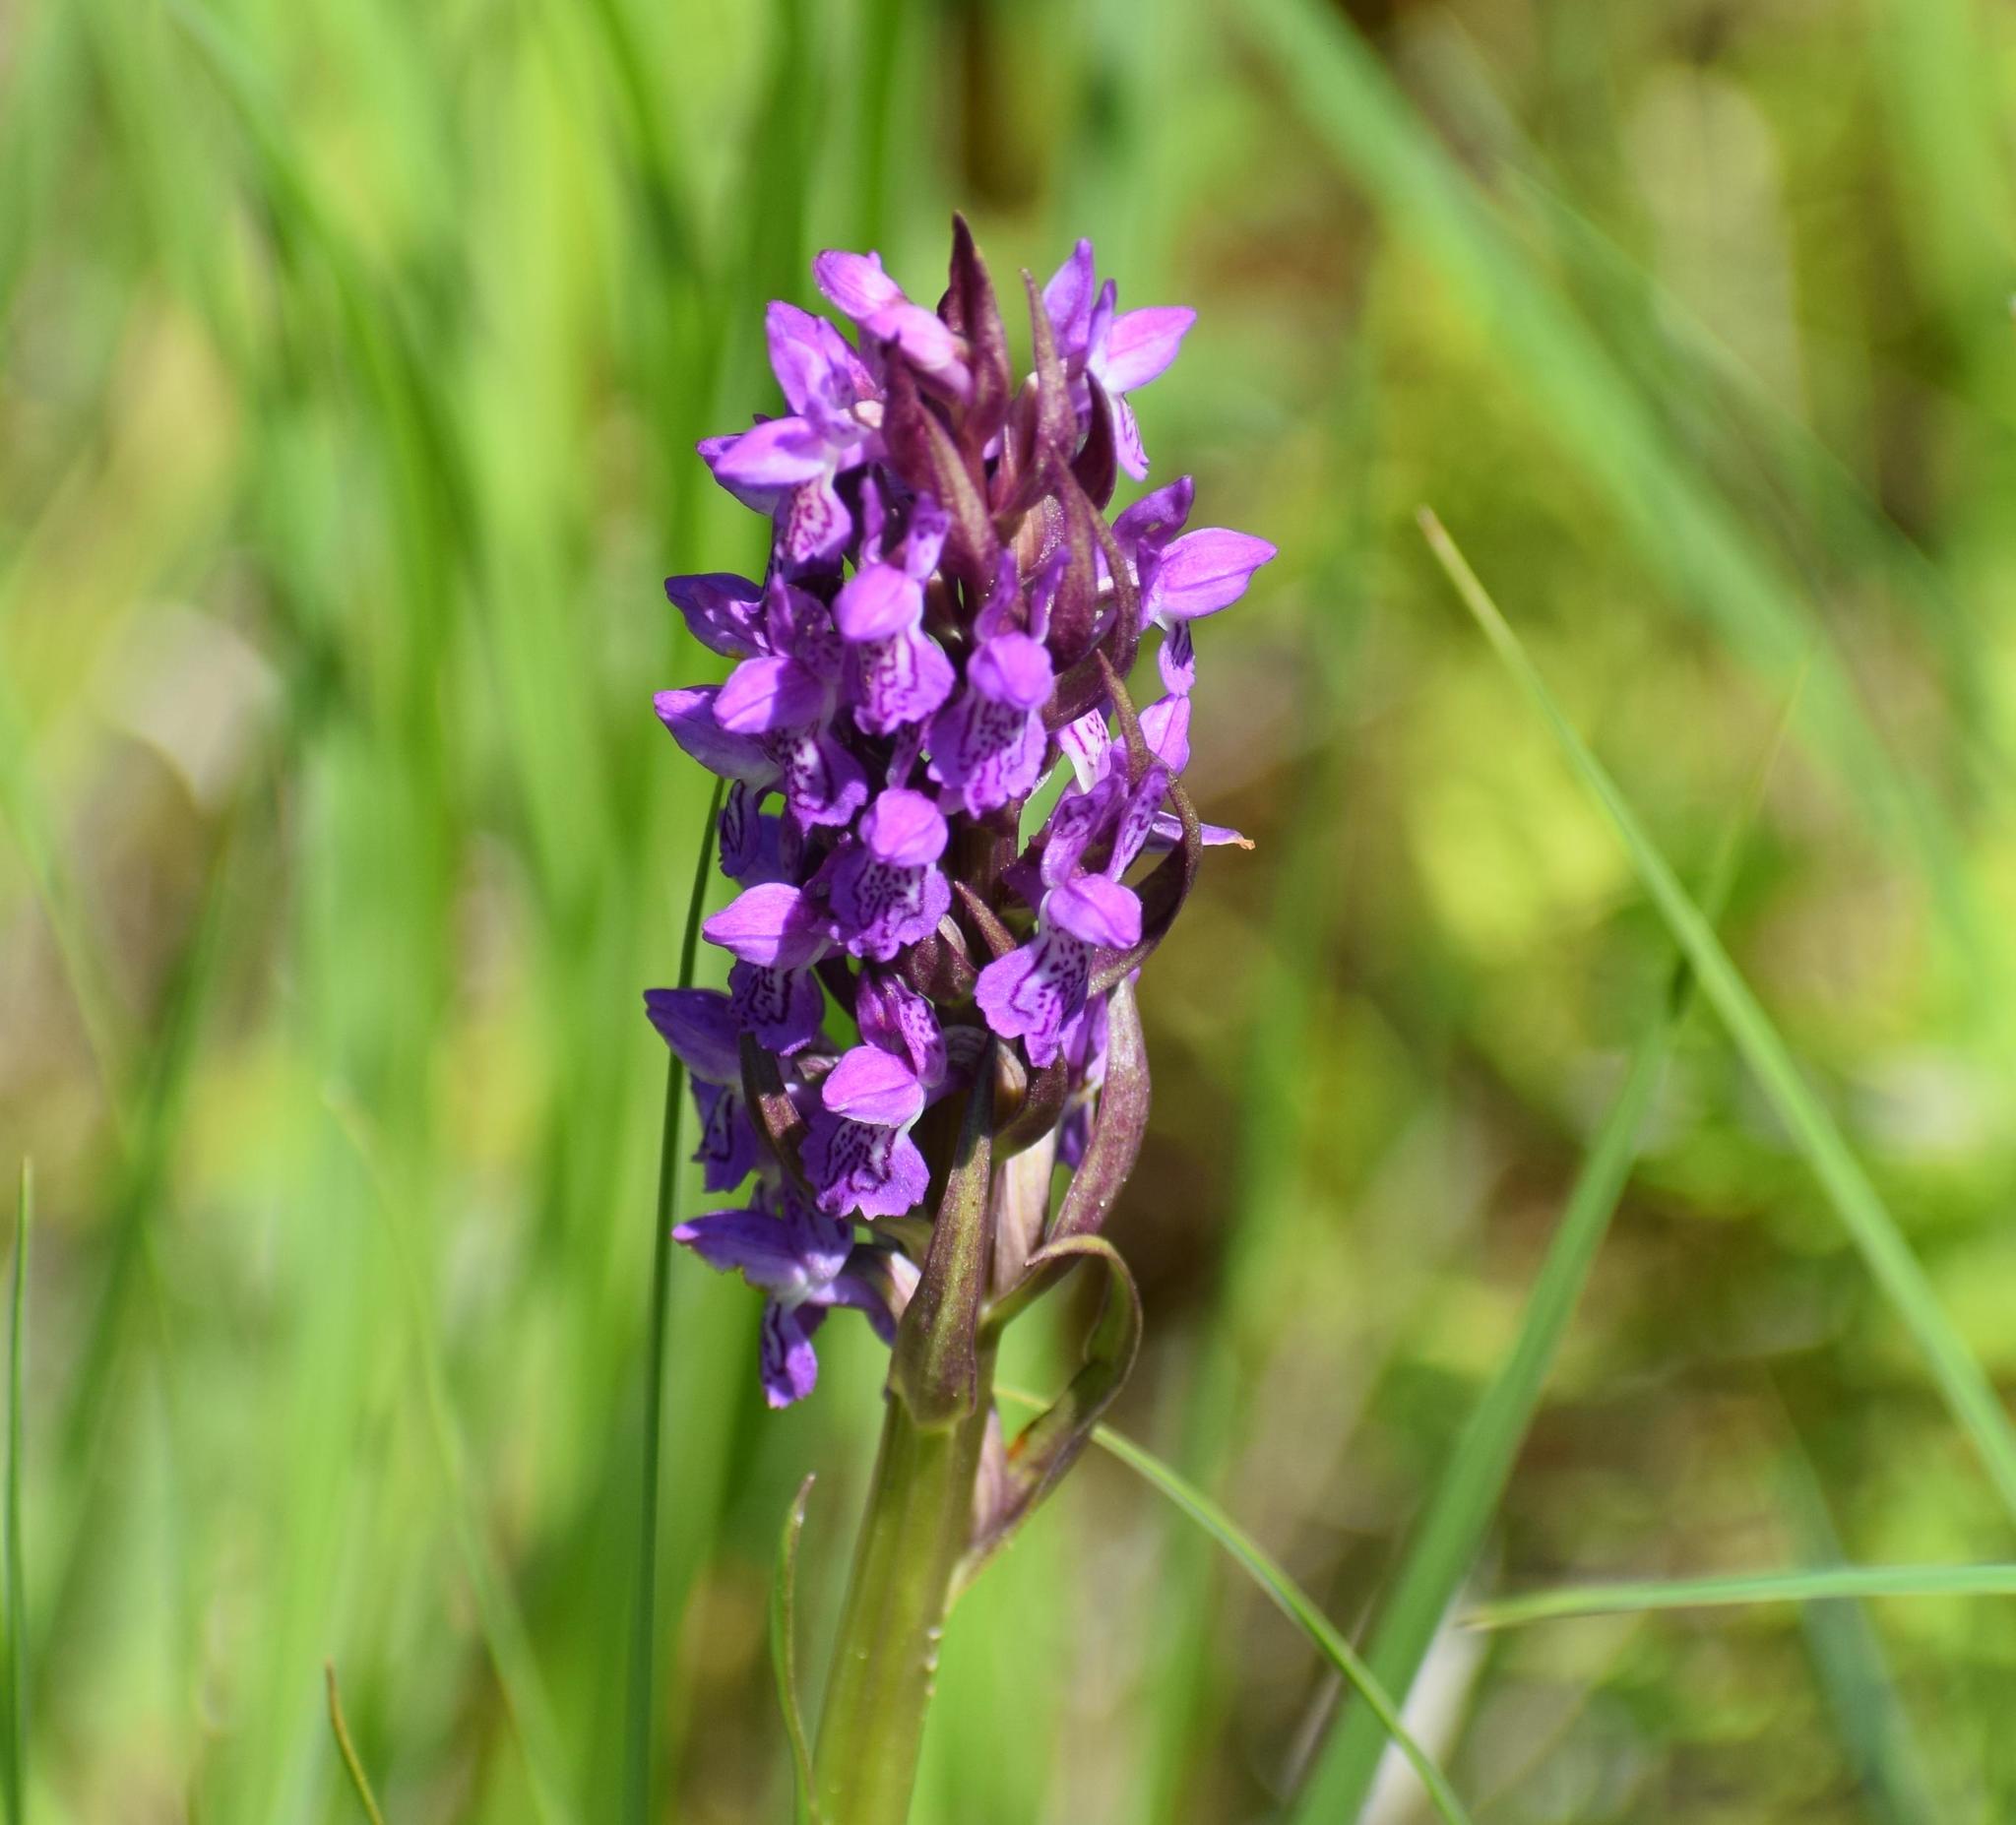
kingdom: Plantae
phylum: Tracheophyta
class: Liliopsida
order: Asparagales
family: Orchidaceae
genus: Dactylorhiza
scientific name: Dactylorhiza incarnata
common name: Early marsh-orchid
